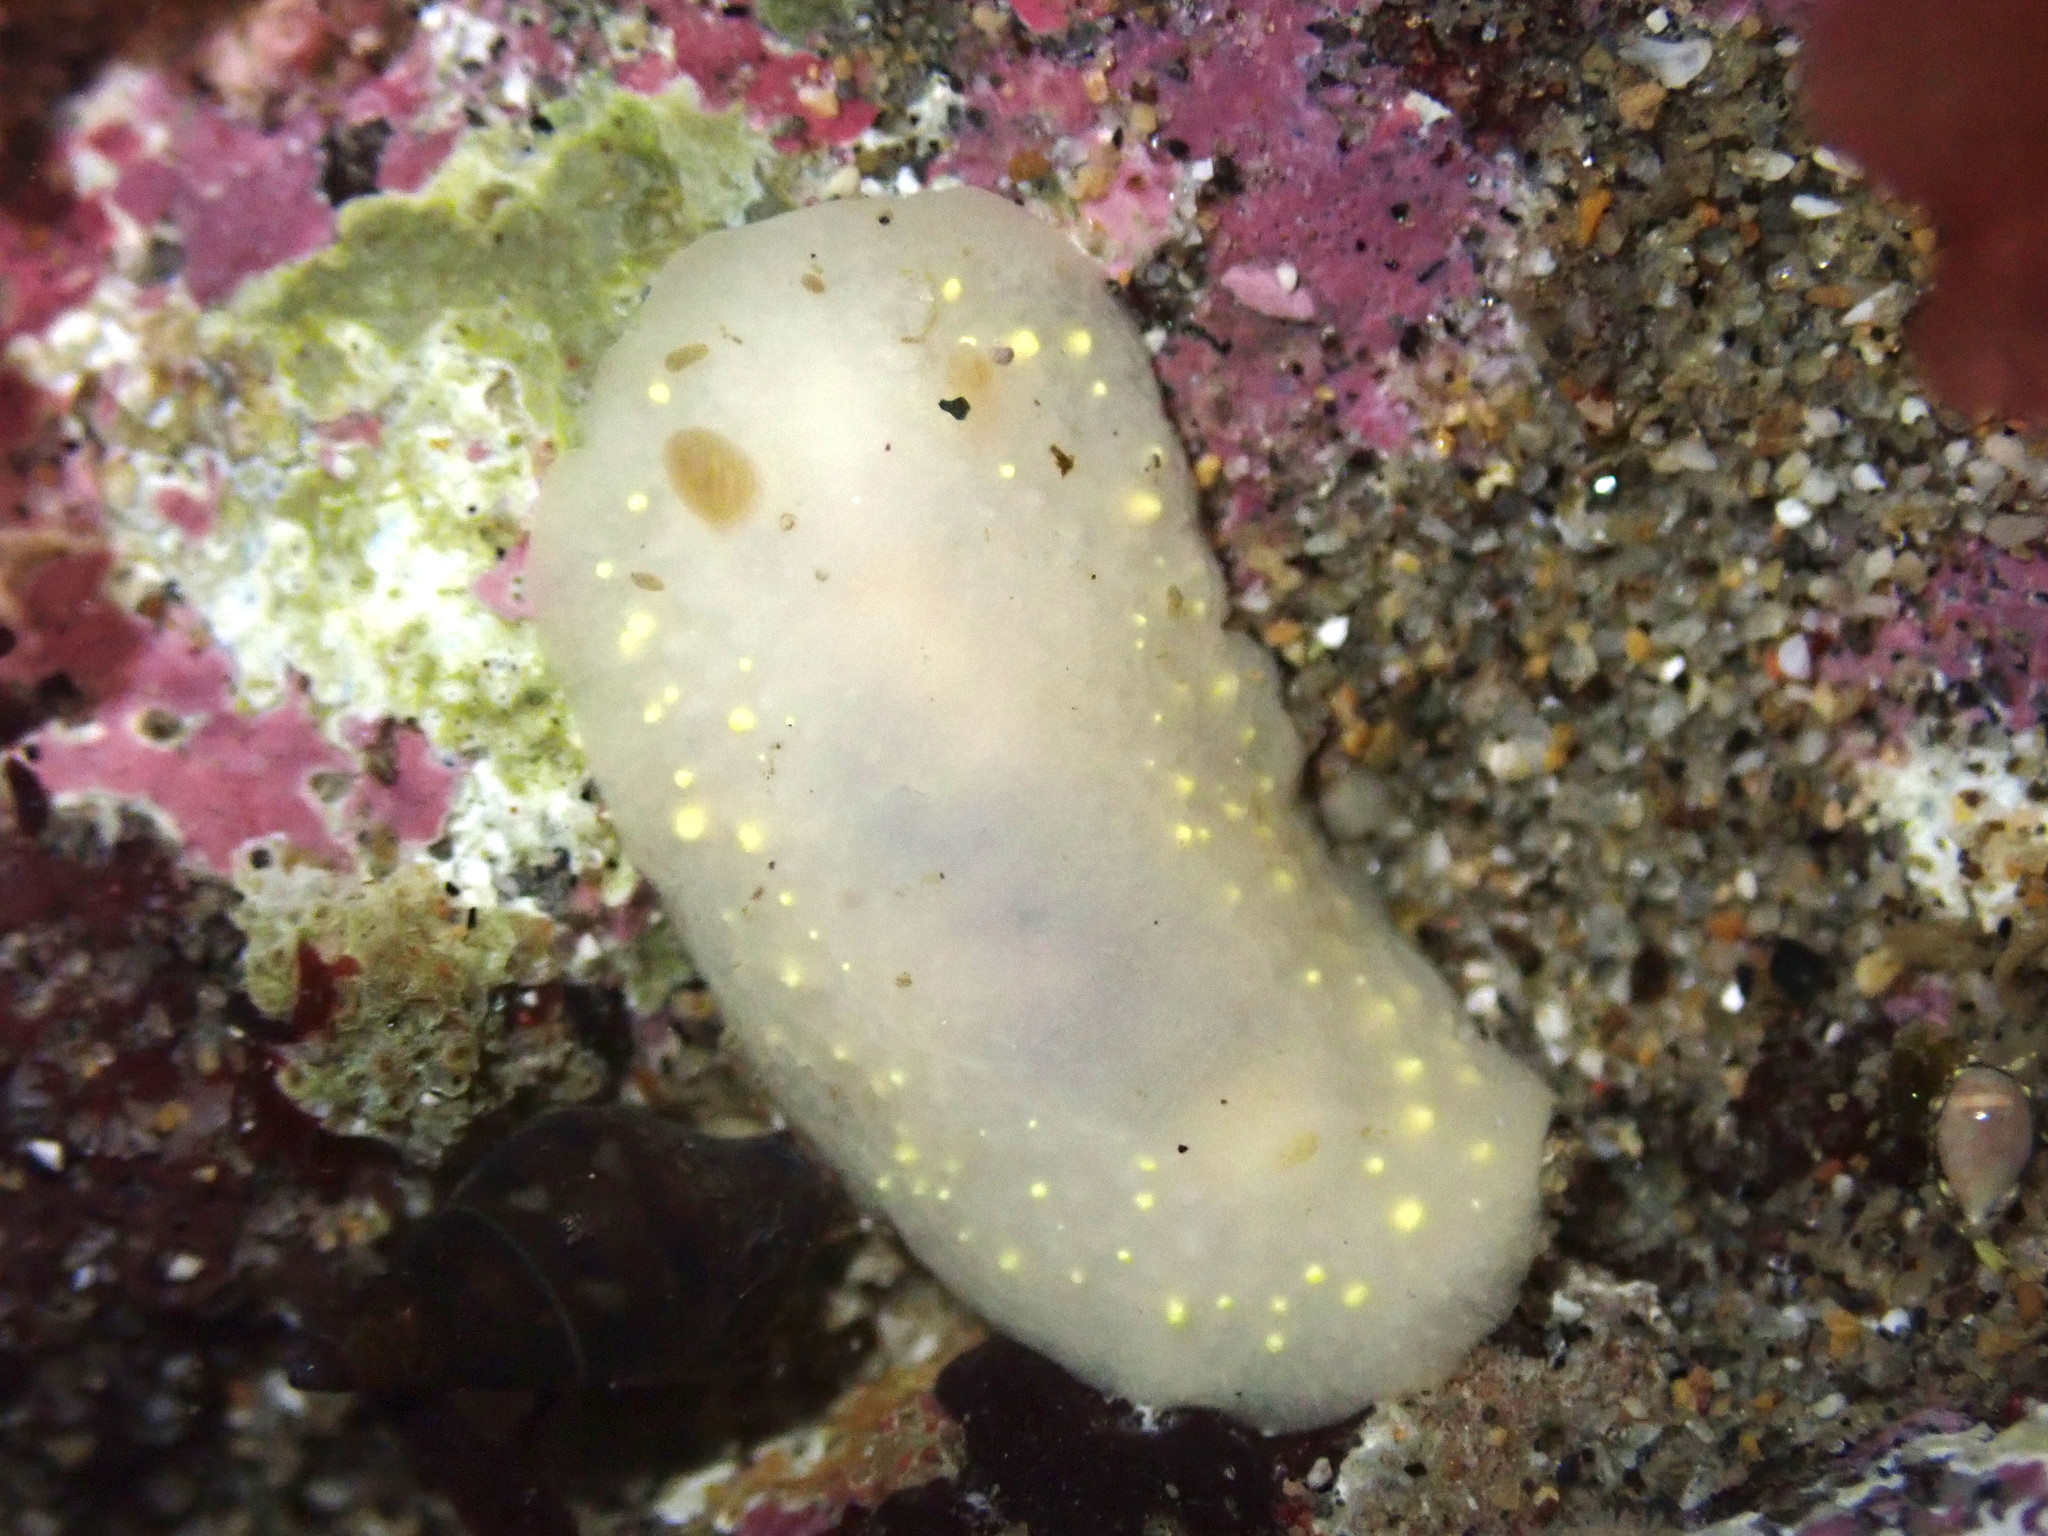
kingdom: Animalia
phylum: Mollusca
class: Gastropoda
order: Nudibranchia
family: Cadlinidae
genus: Cadlina
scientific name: Cadlina modesta
